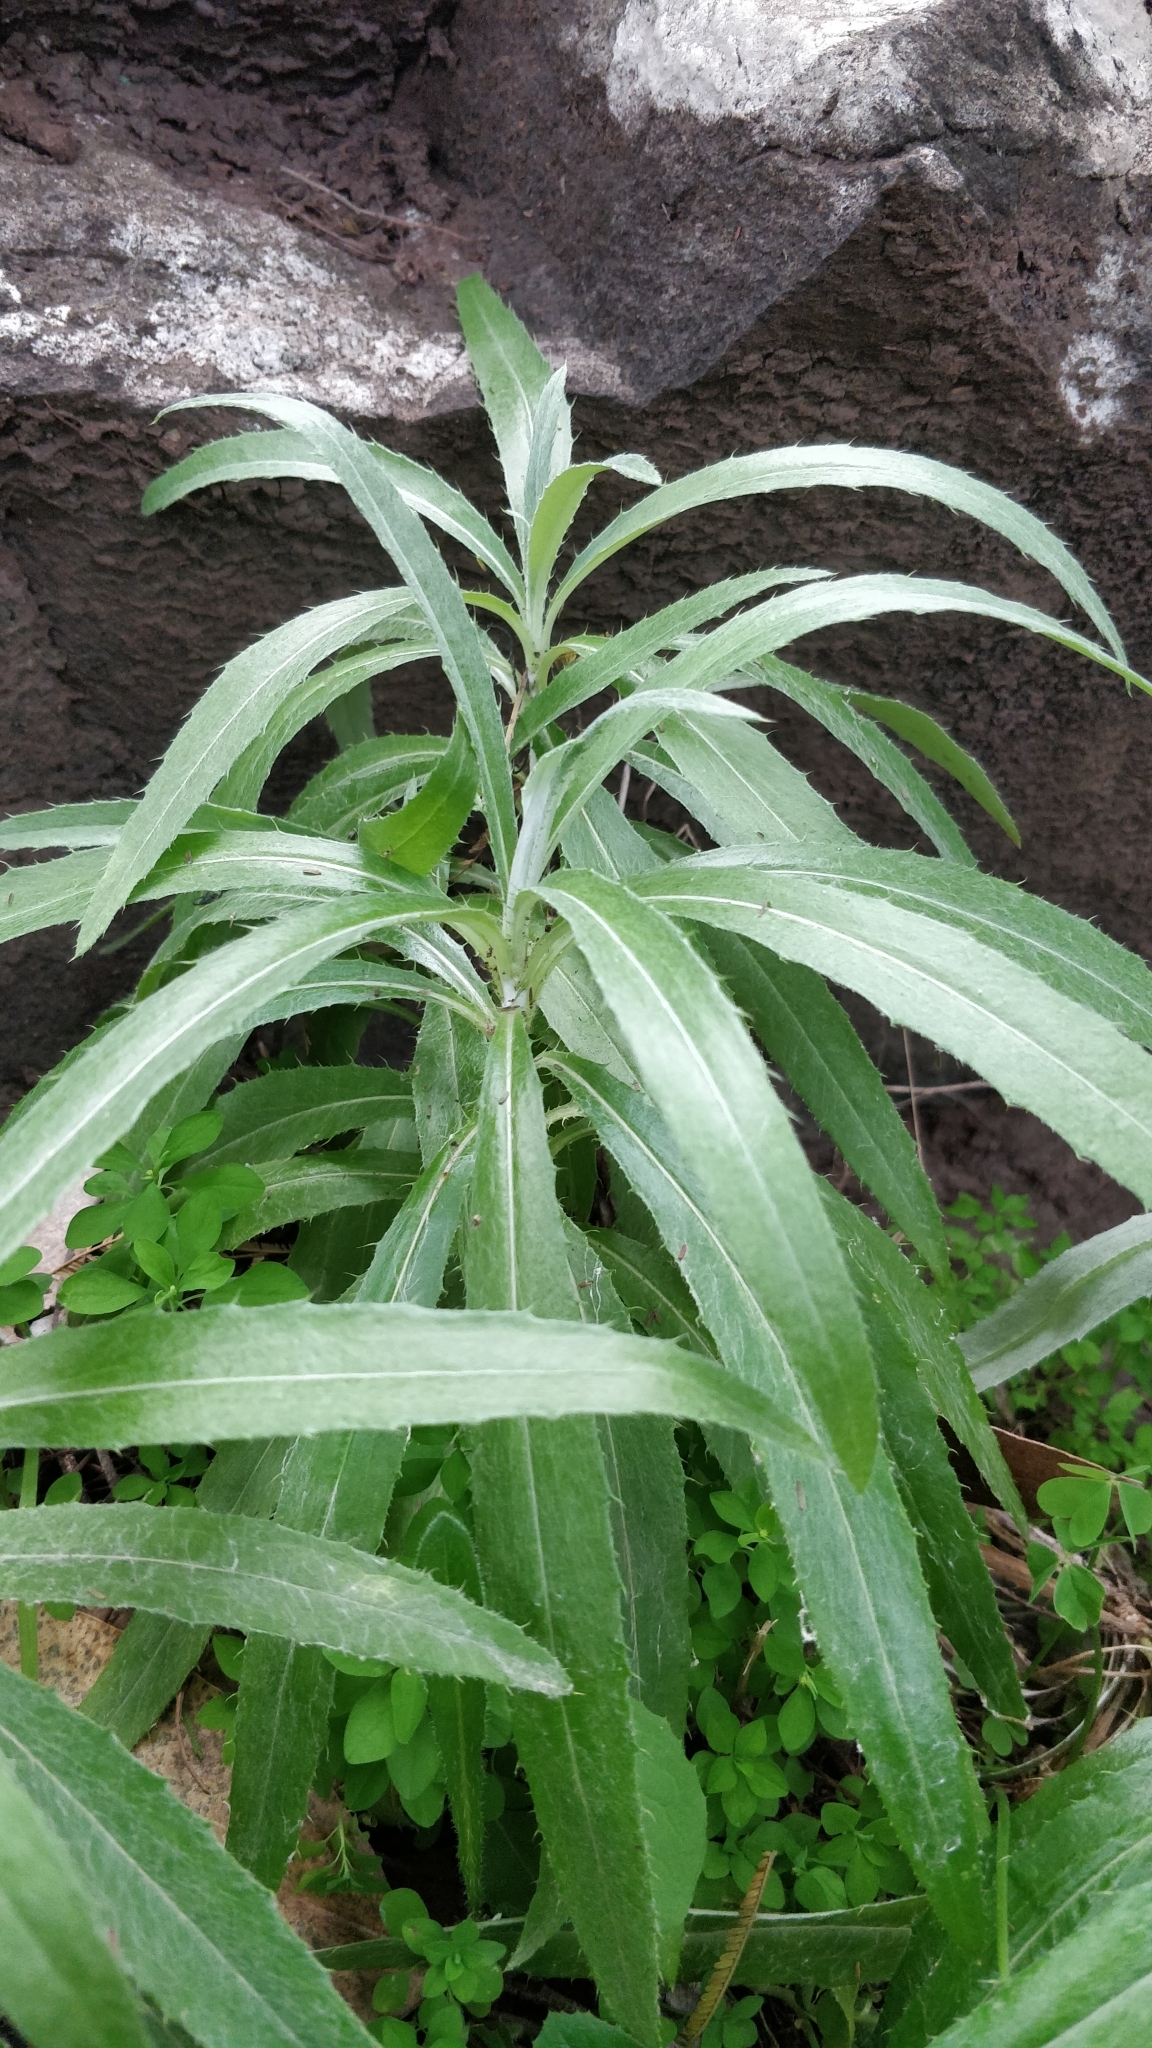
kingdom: Plantae
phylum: Tracheophyta
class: Magnoliopsida
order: Asterales
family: Asteraceae
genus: Carlina
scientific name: Carlina salicifolia
